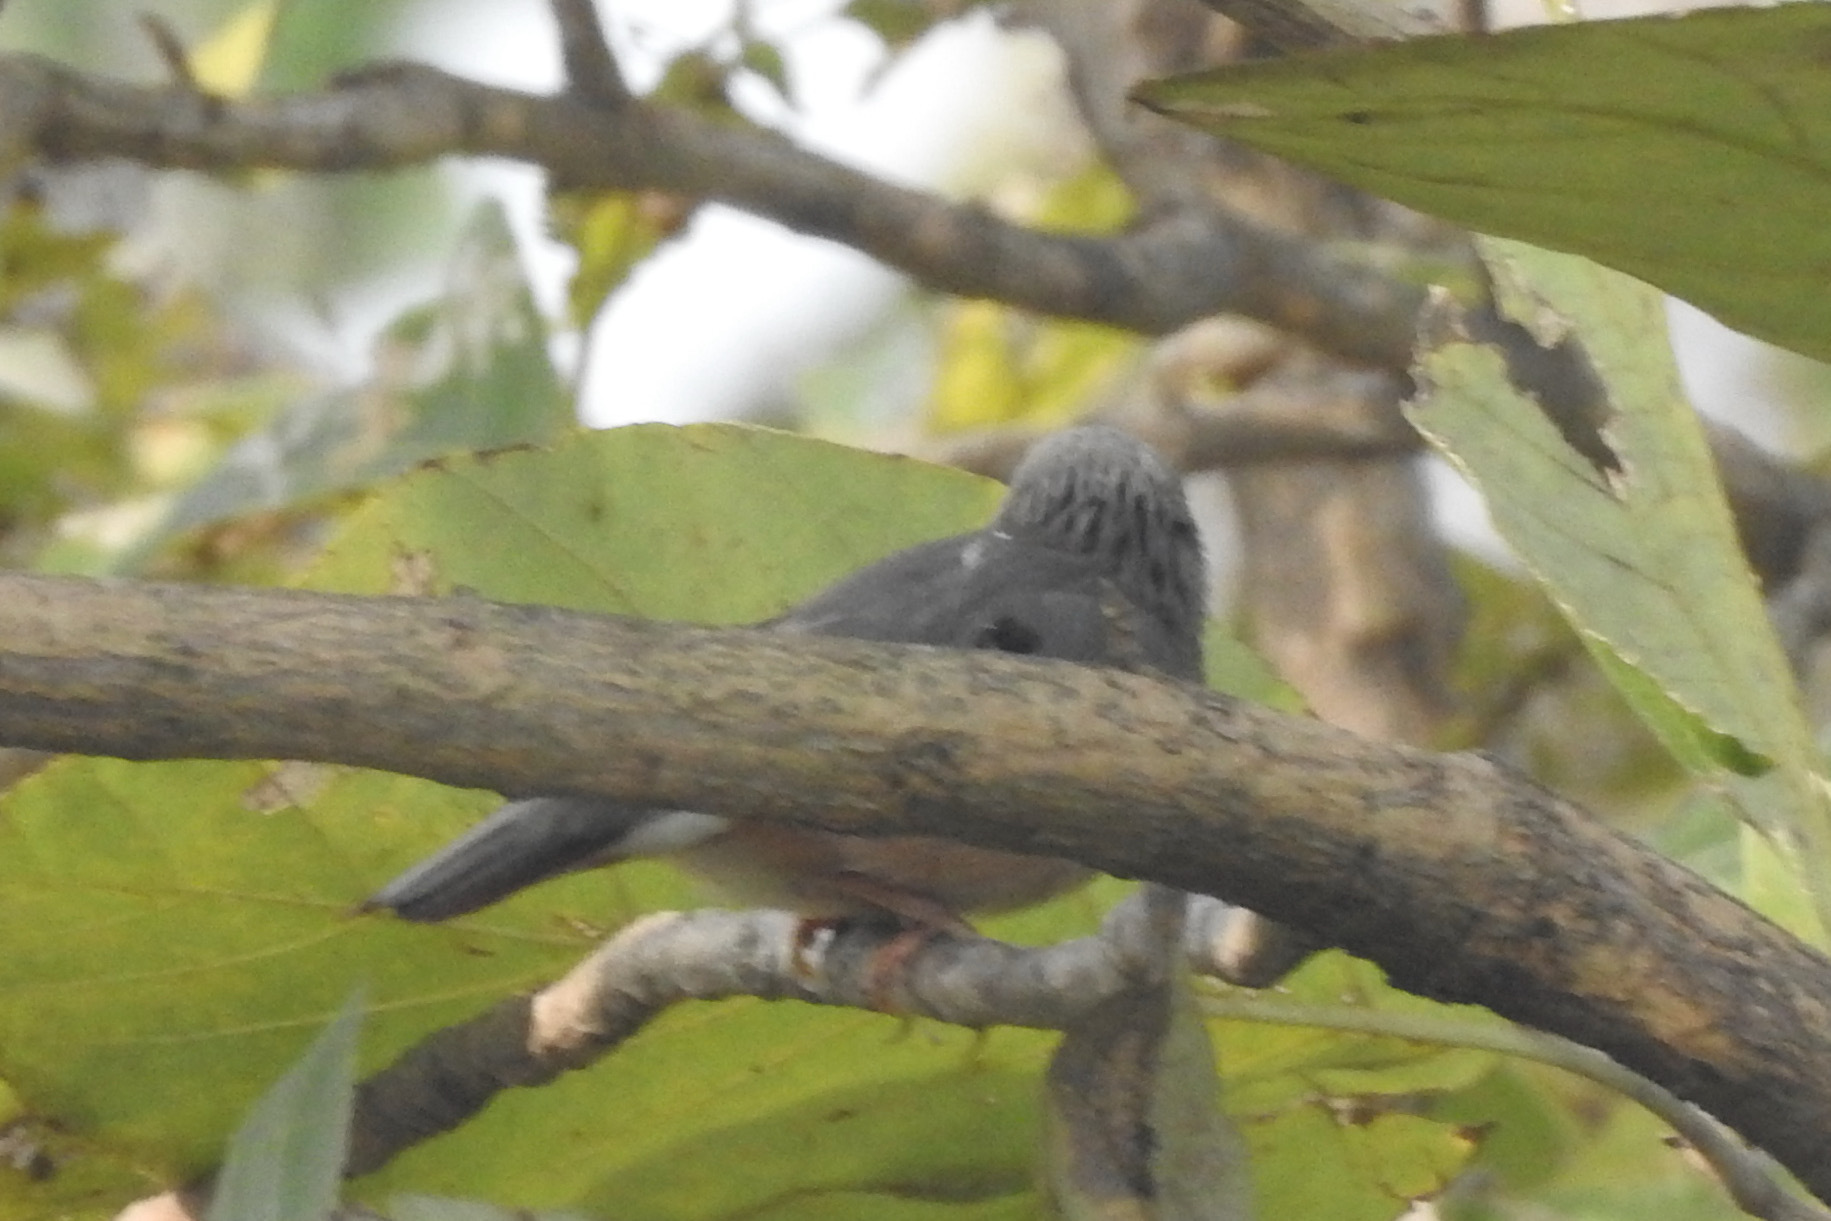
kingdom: Animalia
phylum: Chordata
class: Aves
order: Passeriformes
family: Leiothrichidae
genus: Turdoides
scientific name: Turdoides affinis
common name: Yellow-billed babbler
